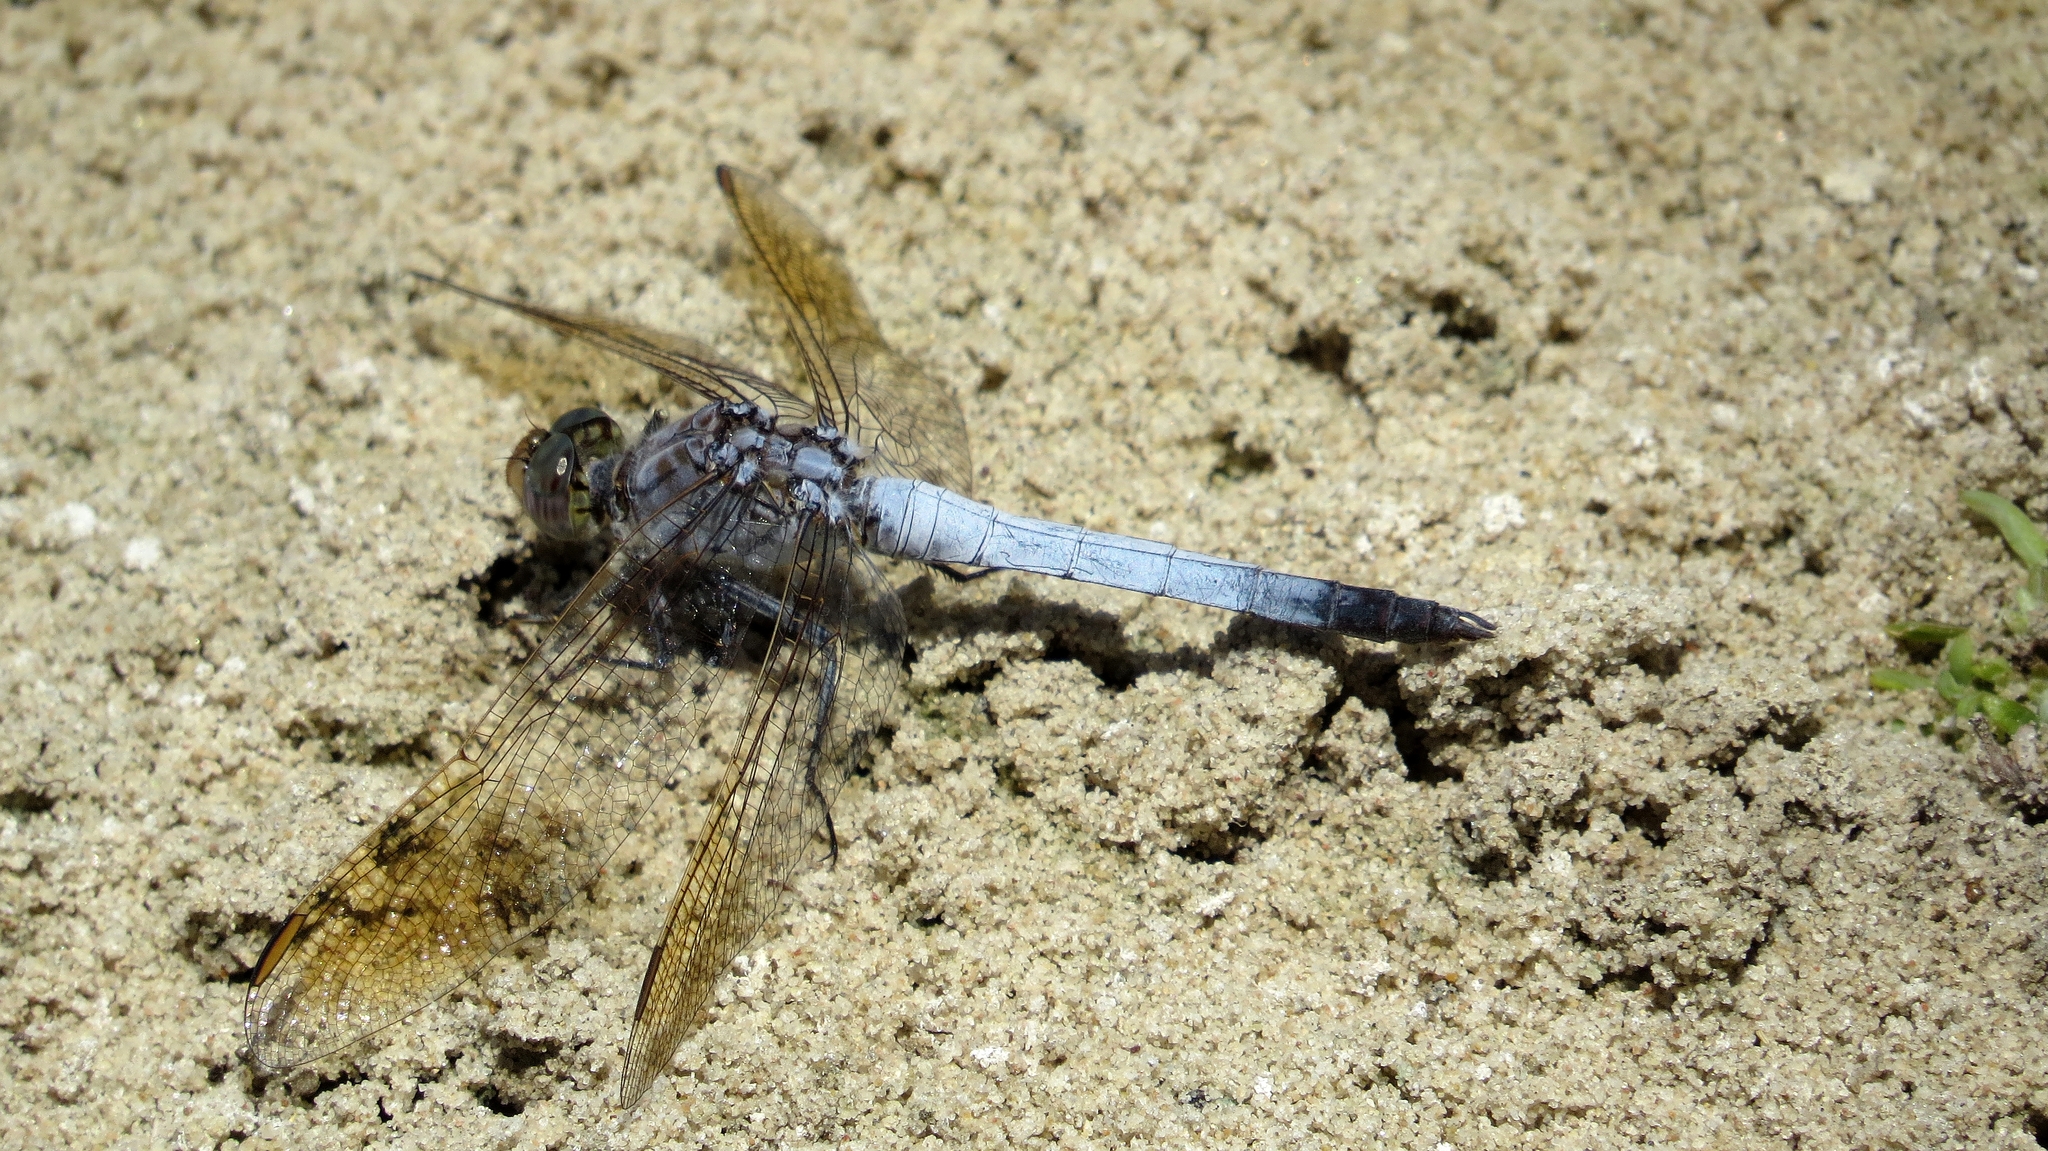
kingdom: Animalia
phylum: Arthropoda
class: Insecta
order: Odonata
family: Libellulidae
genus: Orthetrum
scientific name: Orthetrum caledonicum
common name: Blue skimmer
